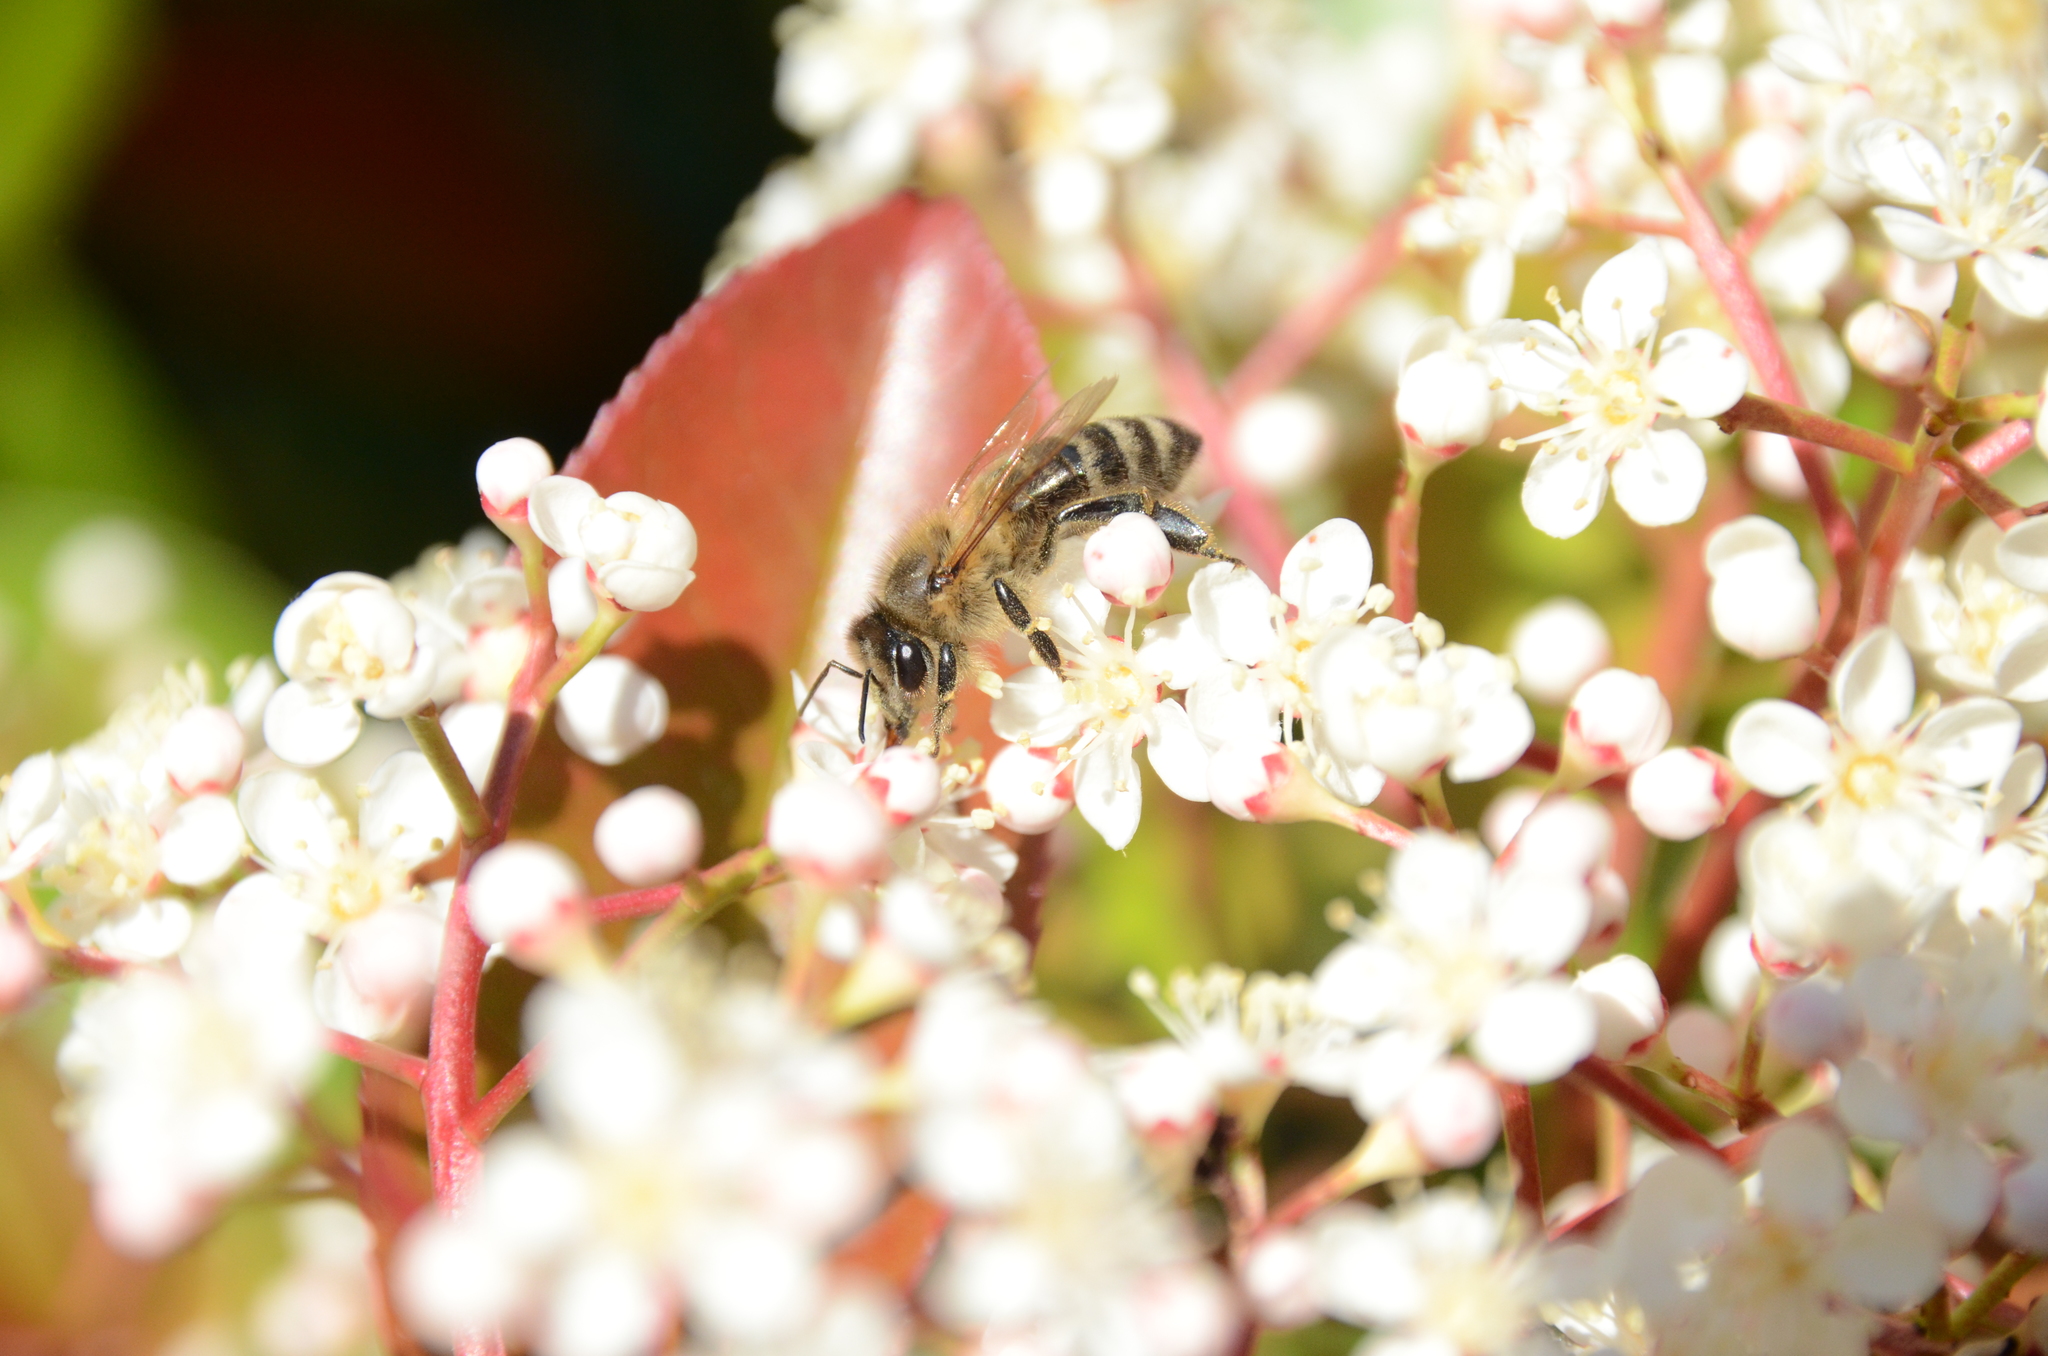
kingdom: Animalia
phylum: Arthropoda
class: Insecta
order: Hymenoptera
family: Apidae
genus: Apis
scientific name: Apis mellifera
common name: Honey bee
